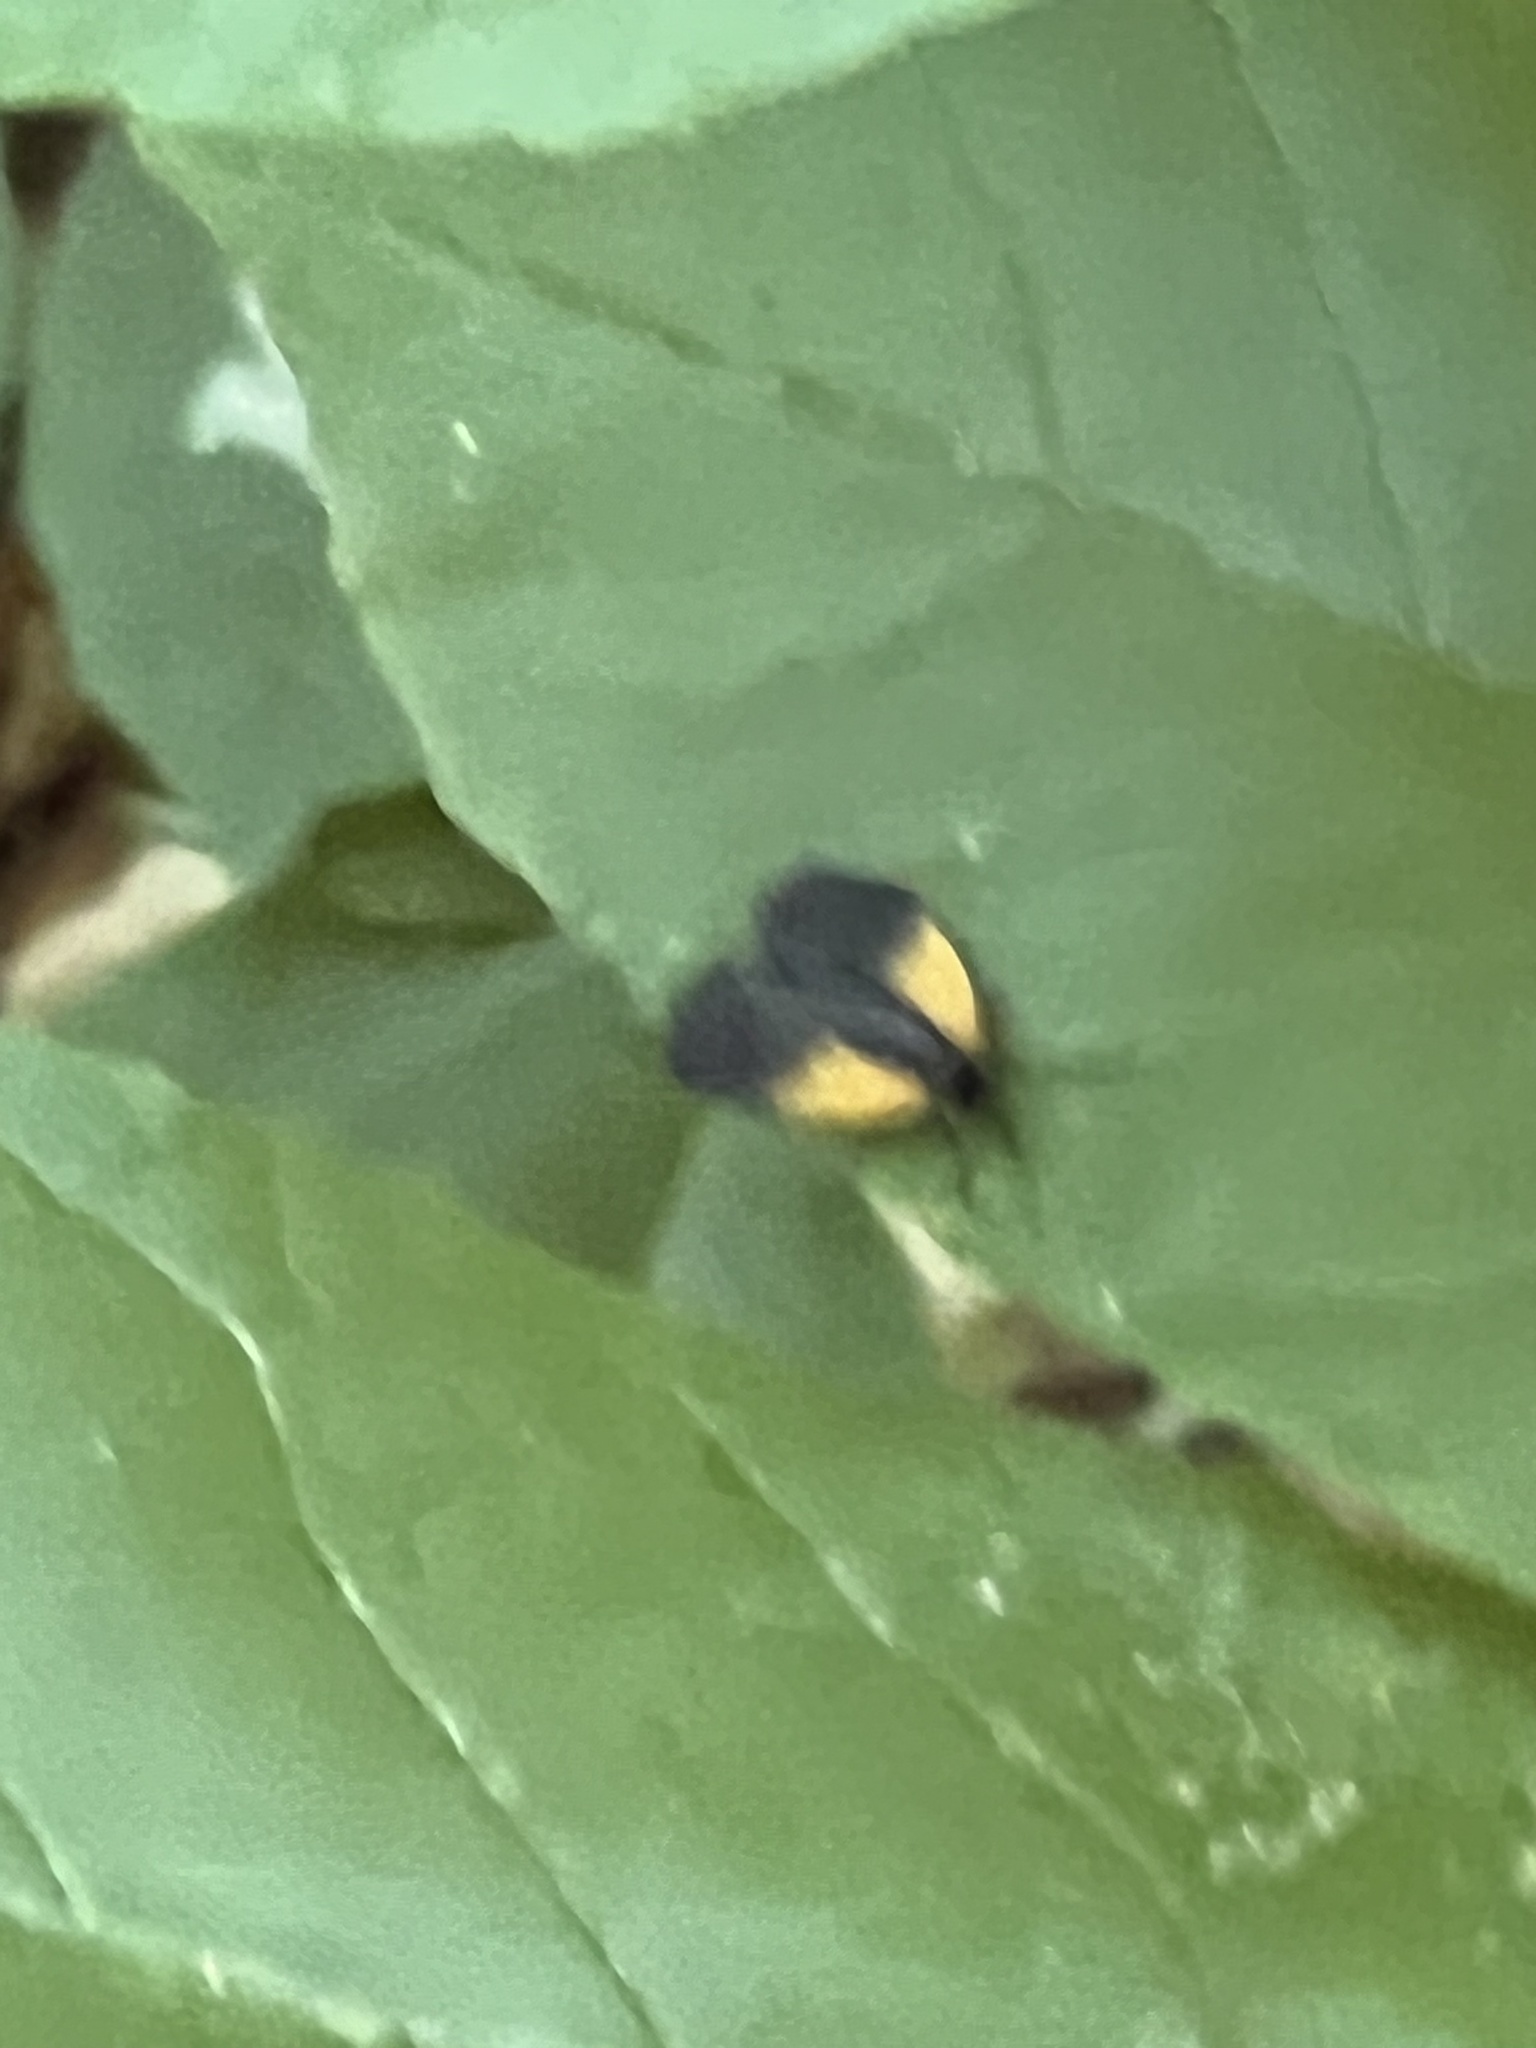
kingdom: Animalia
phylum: Arthropoda
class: Insecta
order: Lepidoptera
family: Zygaenidae
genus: Malthaca
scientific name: Malthaca dimidiata
